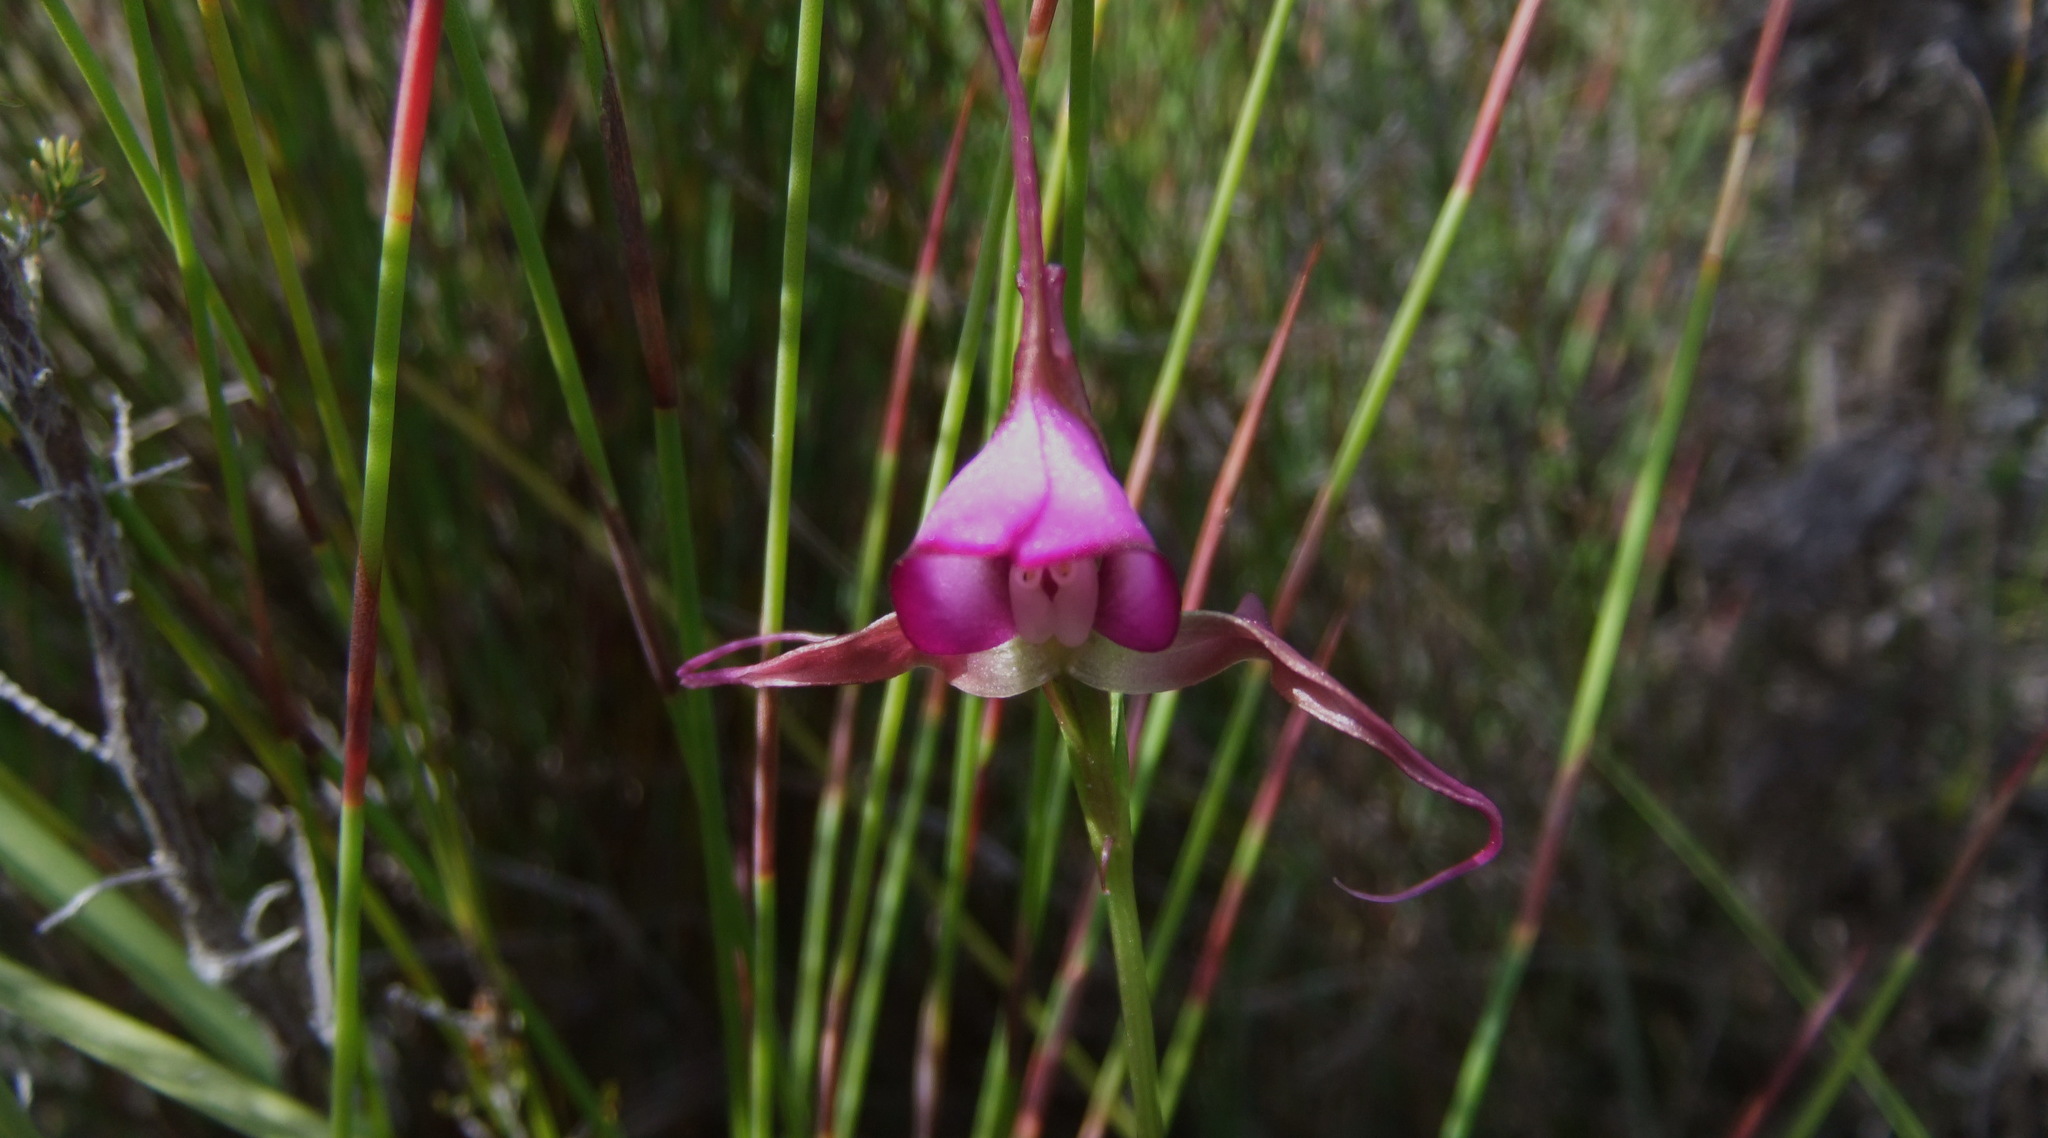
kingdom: Plantae
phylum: Tracheophyta
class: Liliopsida
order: Asparagales
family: Orchidaceae
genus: Disperis
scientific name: Disperis capensis
